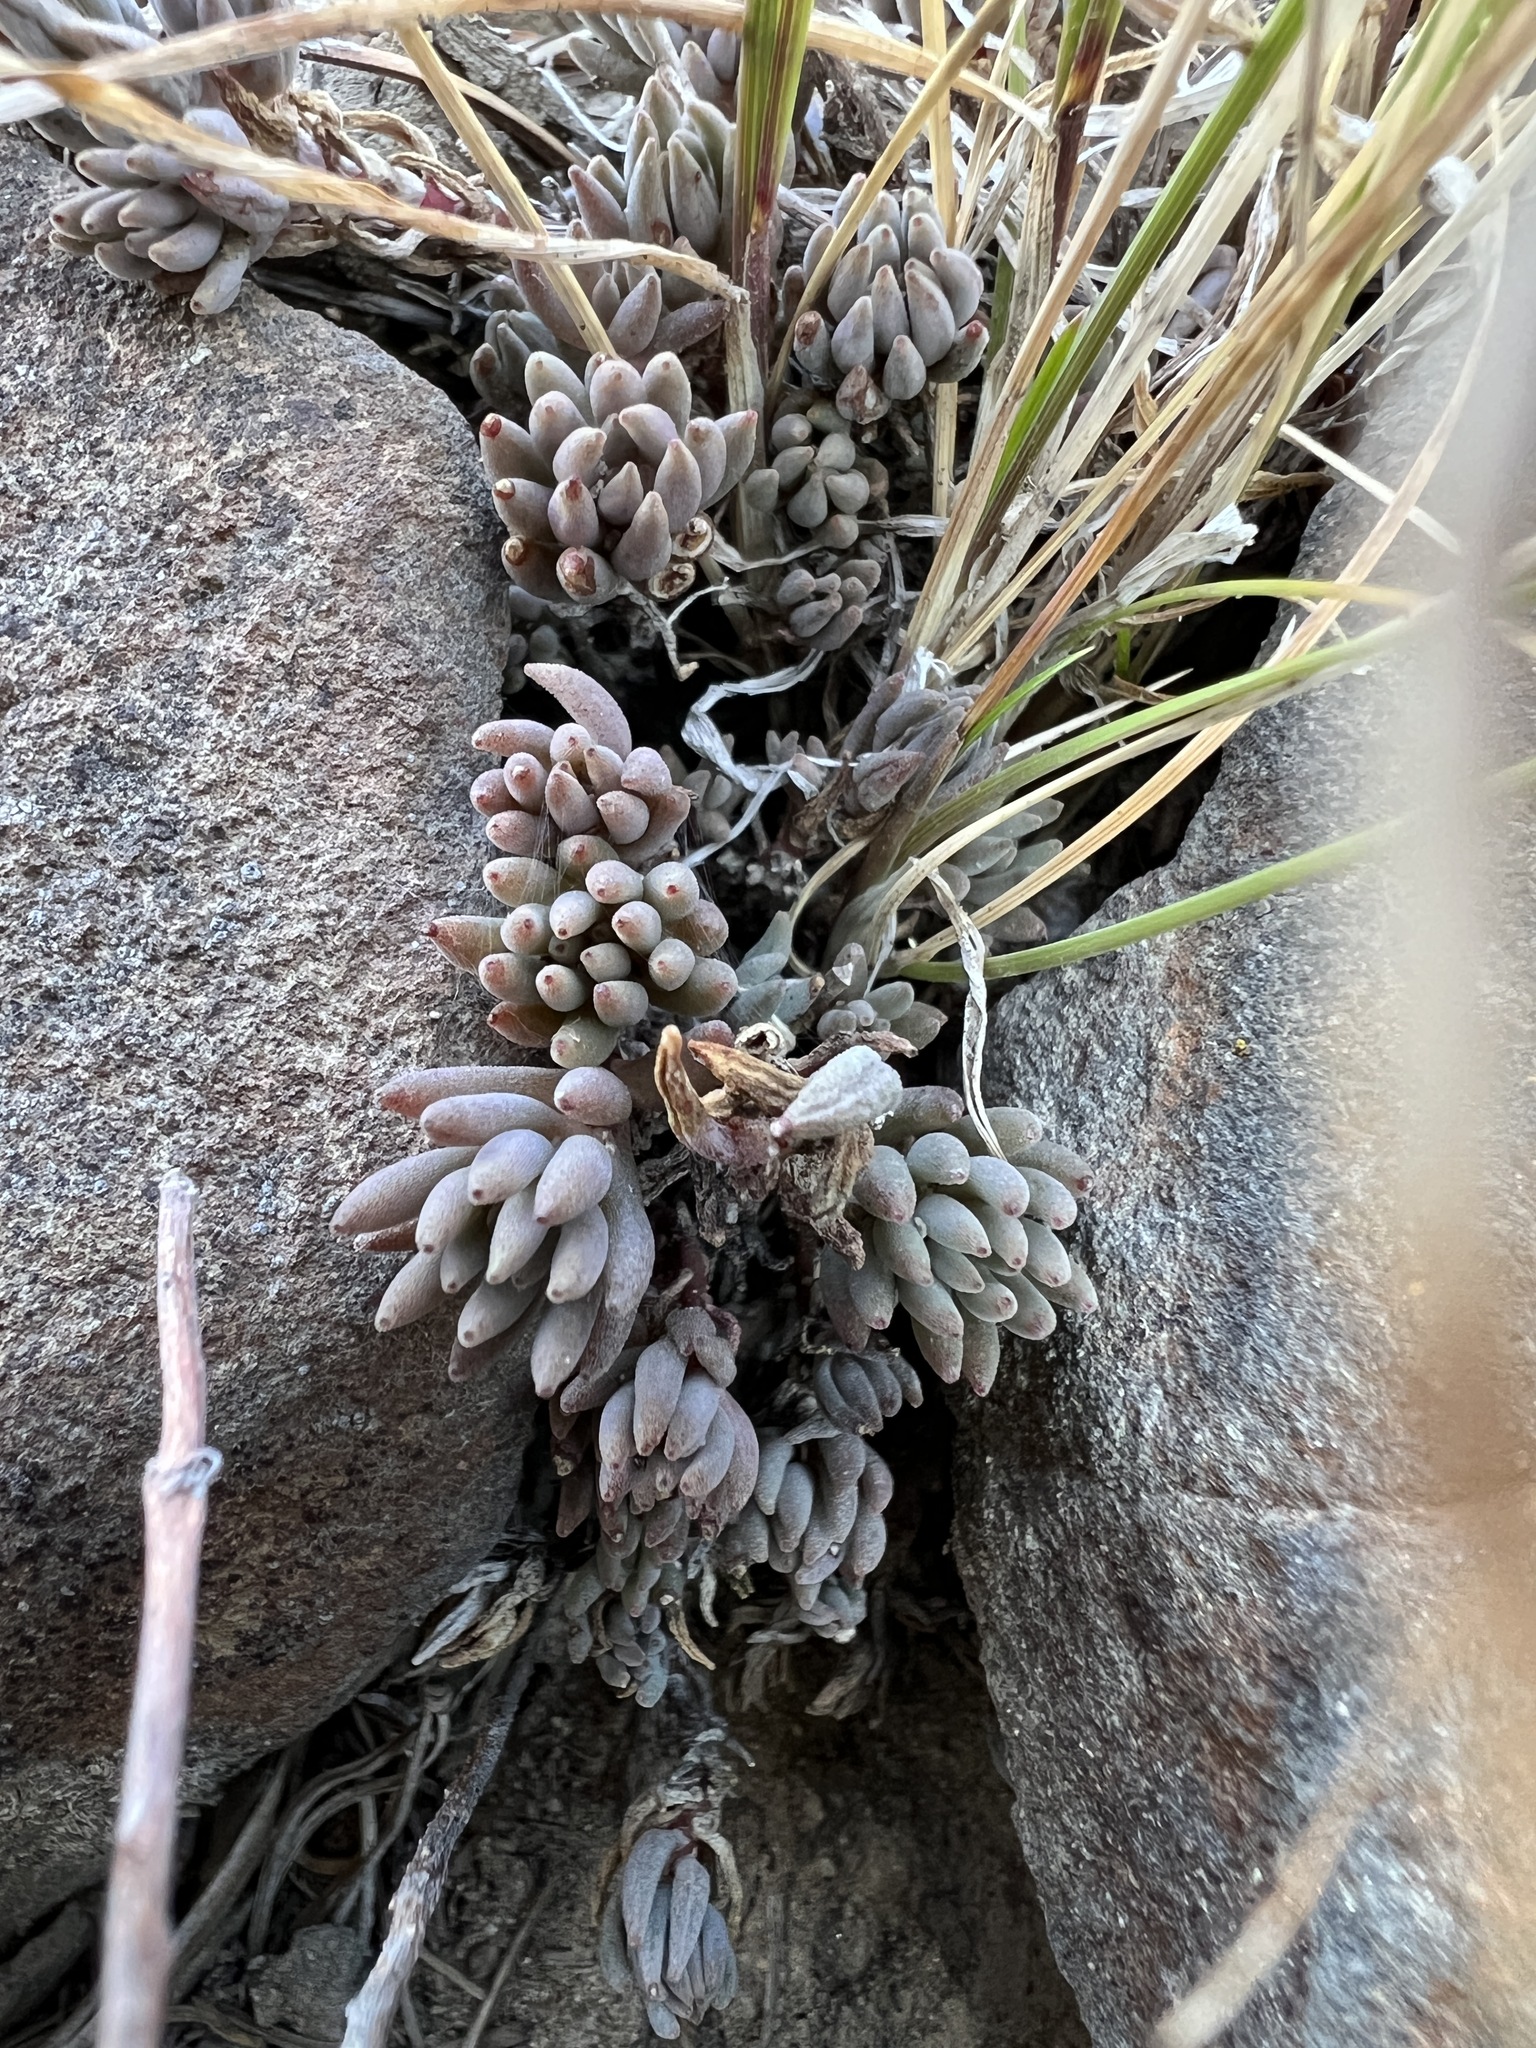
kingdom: Plantae
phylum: Tracheophyta
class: Magnoliopsida
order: Saxifragales
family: Crassulaceae
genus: Sedum
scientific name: Sedum lanceolatum
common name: Common stonecrop
